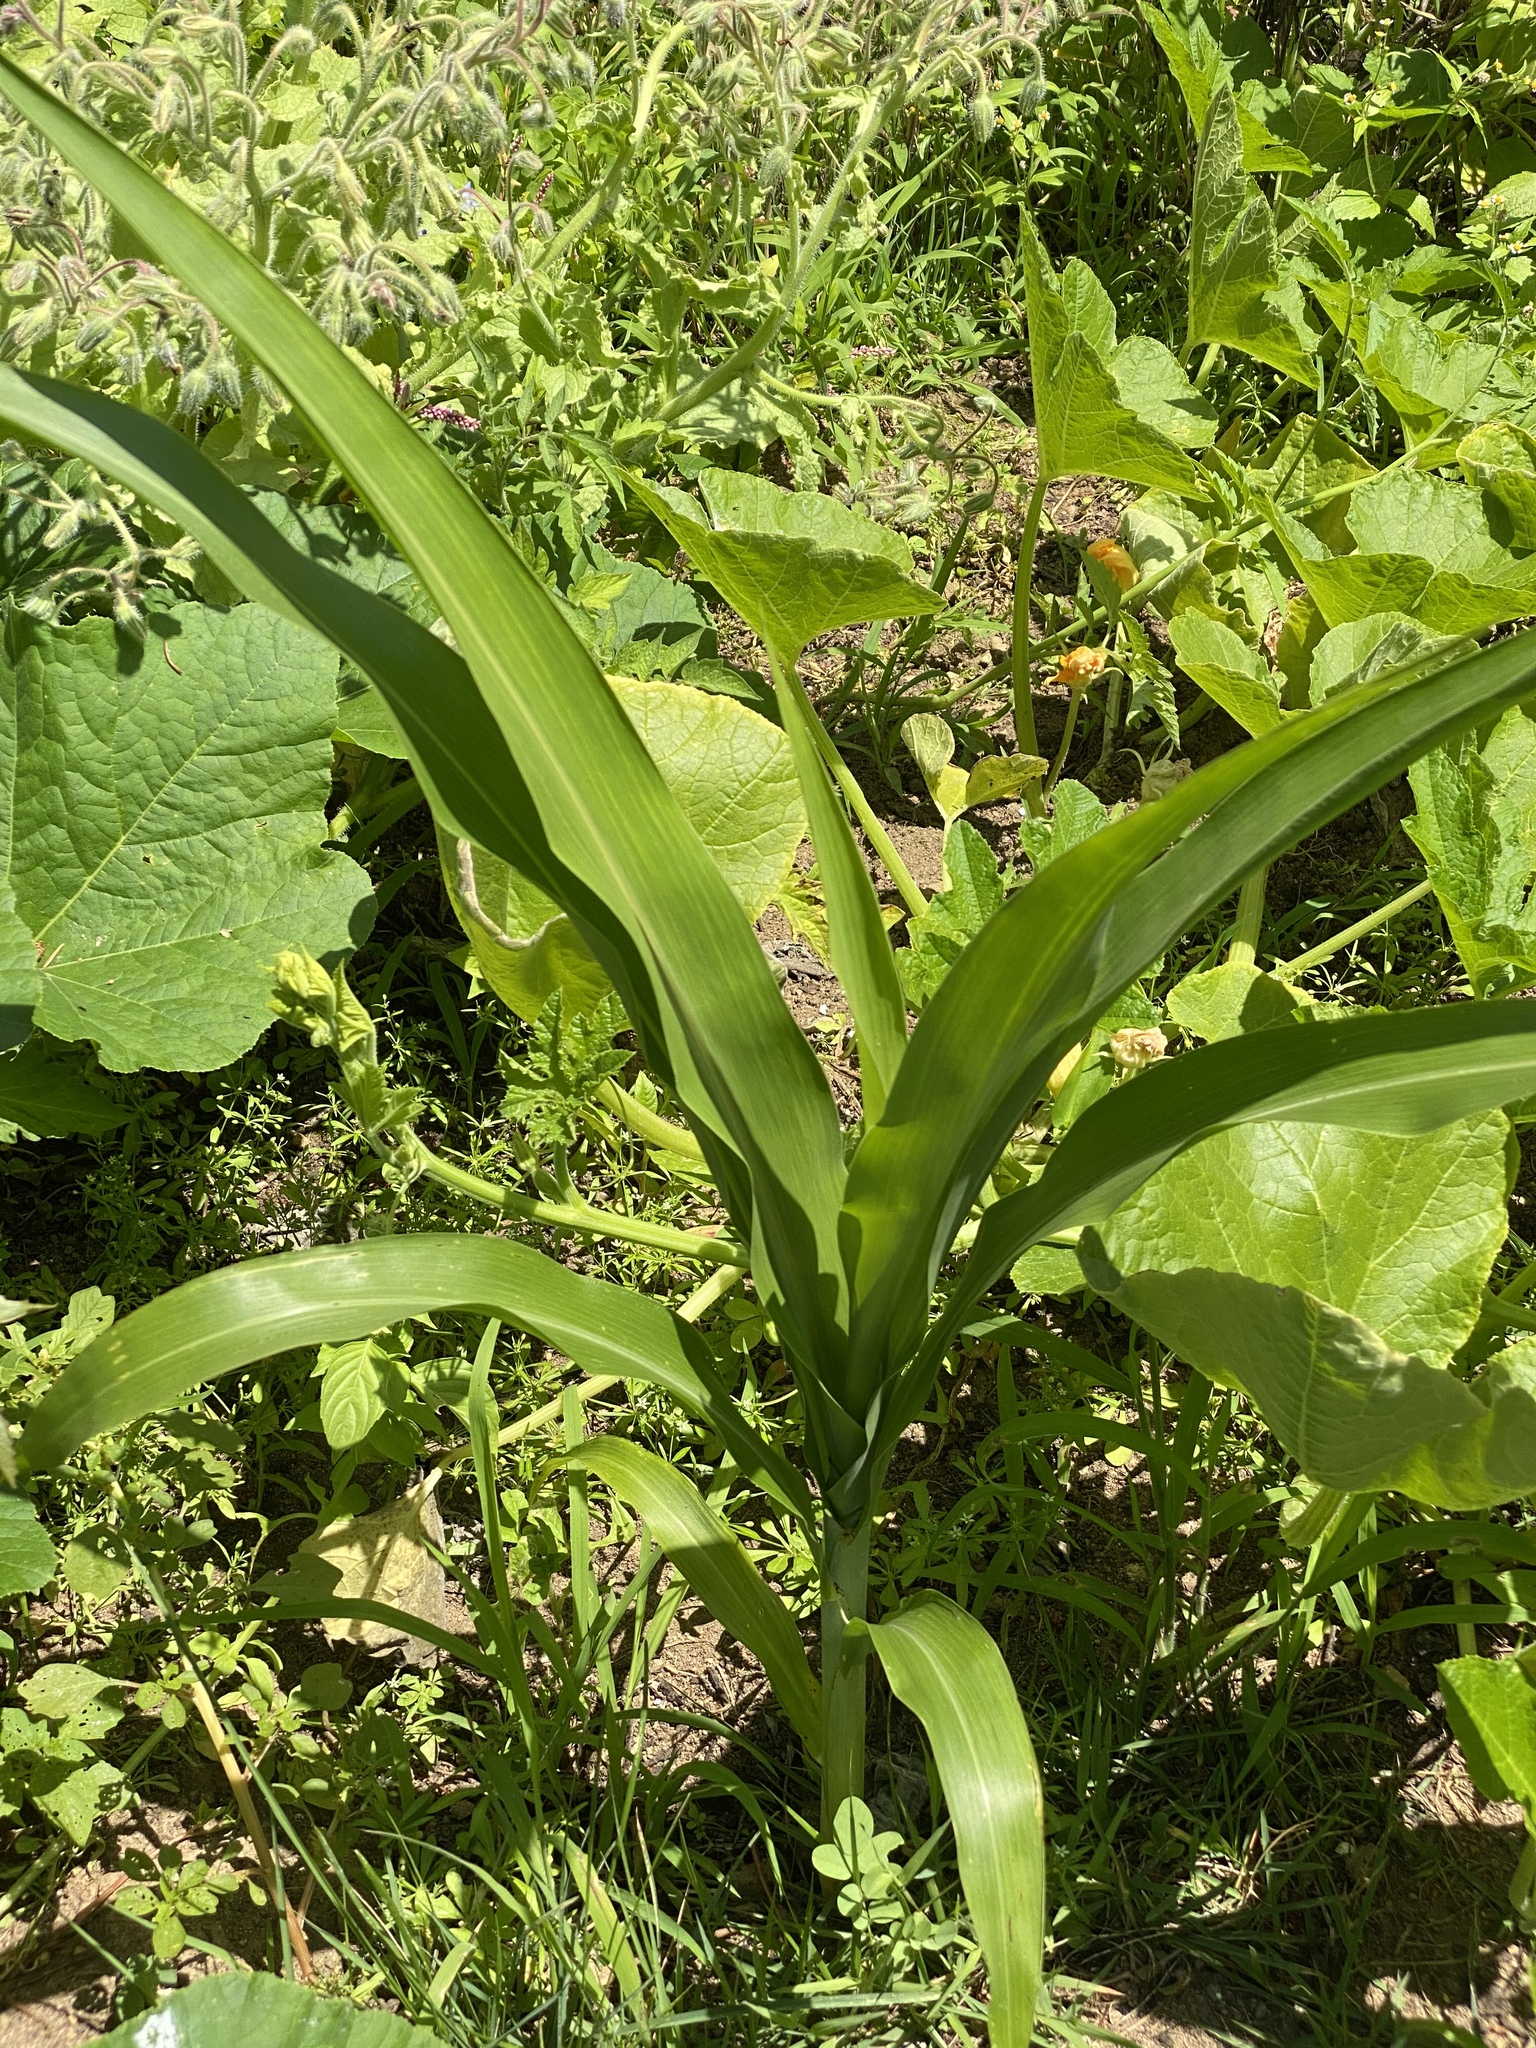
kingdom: Plantae
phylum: Tracheophyta
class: Liliopsida
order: Poales
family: Poaceae
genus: Zea
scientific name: Zea mays
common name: Maize
